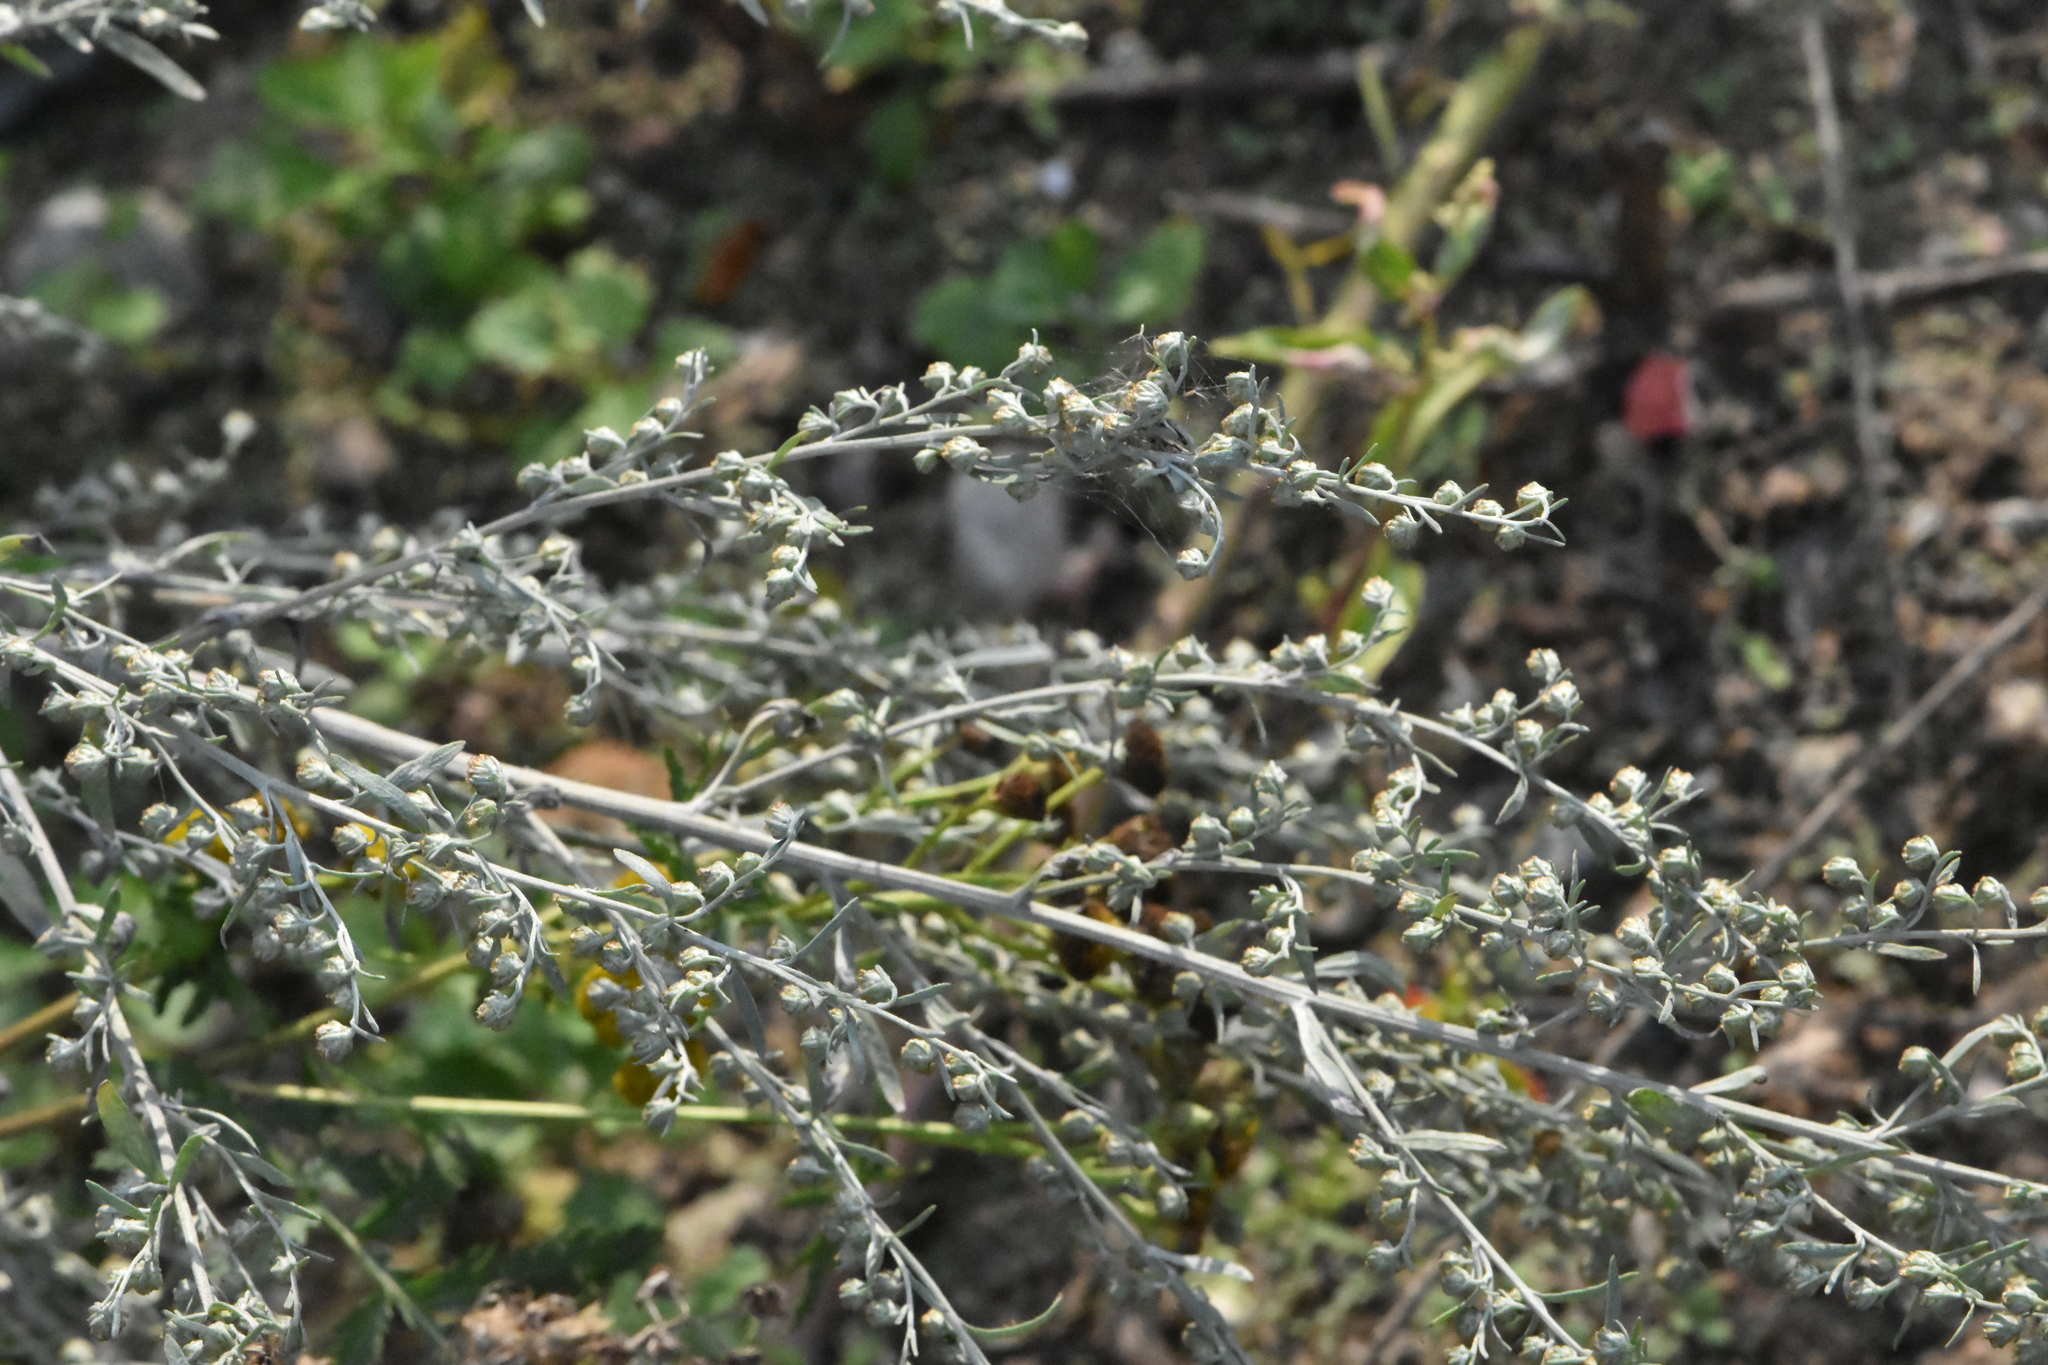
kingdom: Plantae
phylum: Tracheophyta
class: Magnoliopsida
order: Asterales
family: Asteraceae
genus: Artemisia
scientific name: Artemisia absinthium
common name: Wormwood
